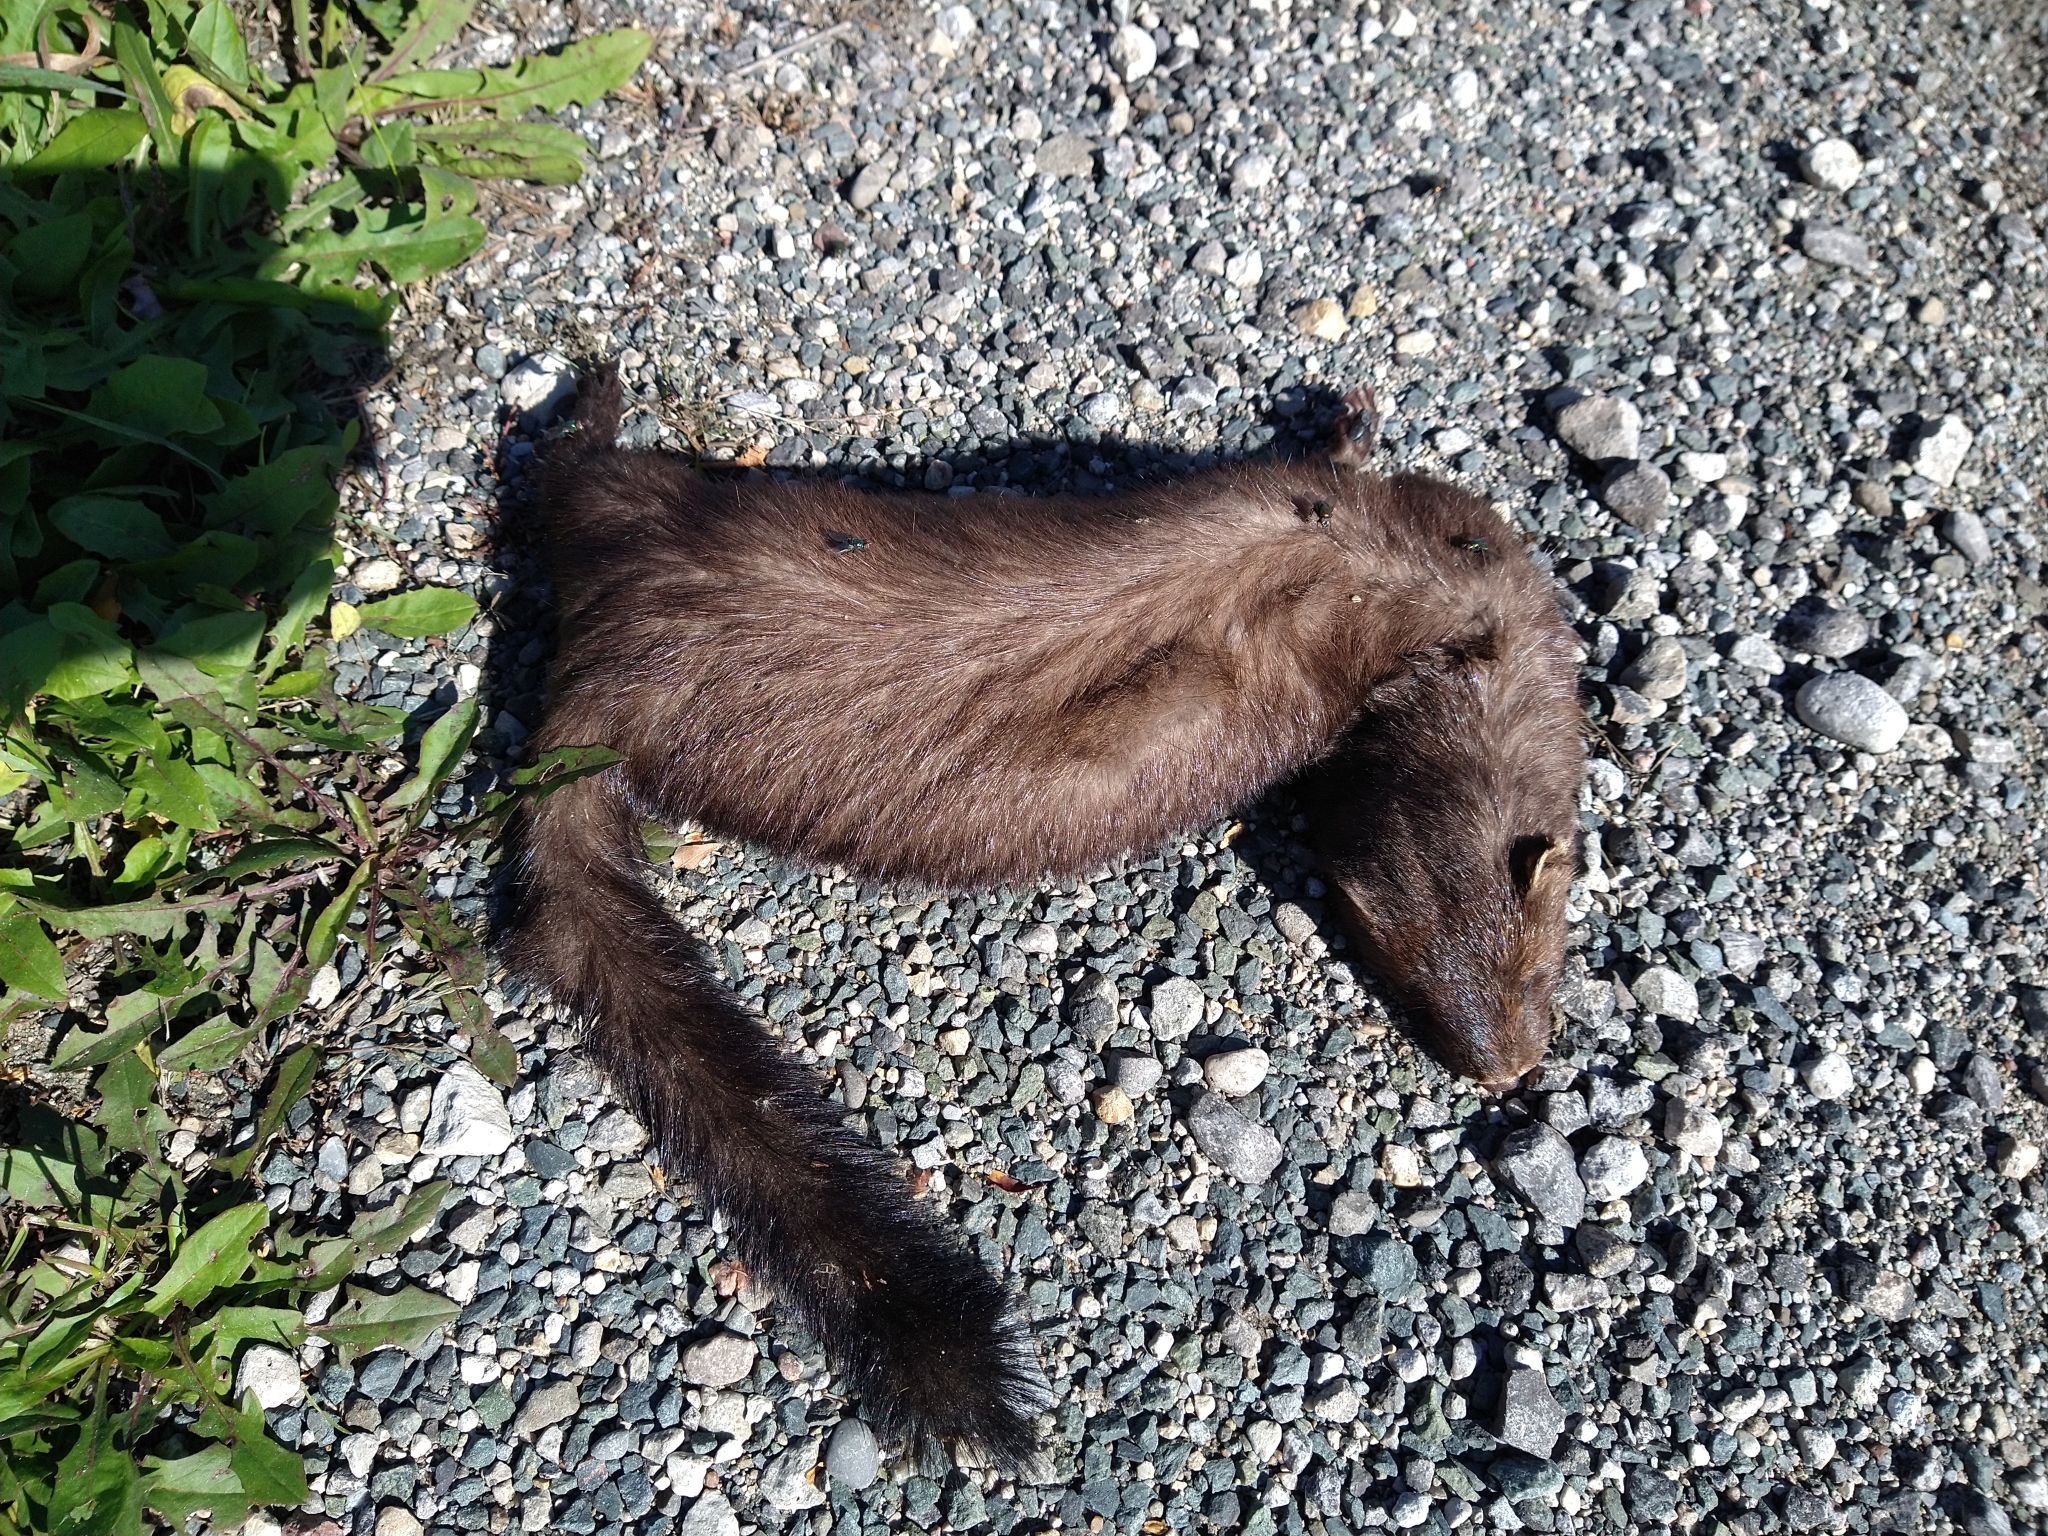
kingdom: Animalia
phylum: Chordata
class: Mammalia
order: Carnivora
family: Mustelidae
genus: Mustela
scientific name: Mustela
